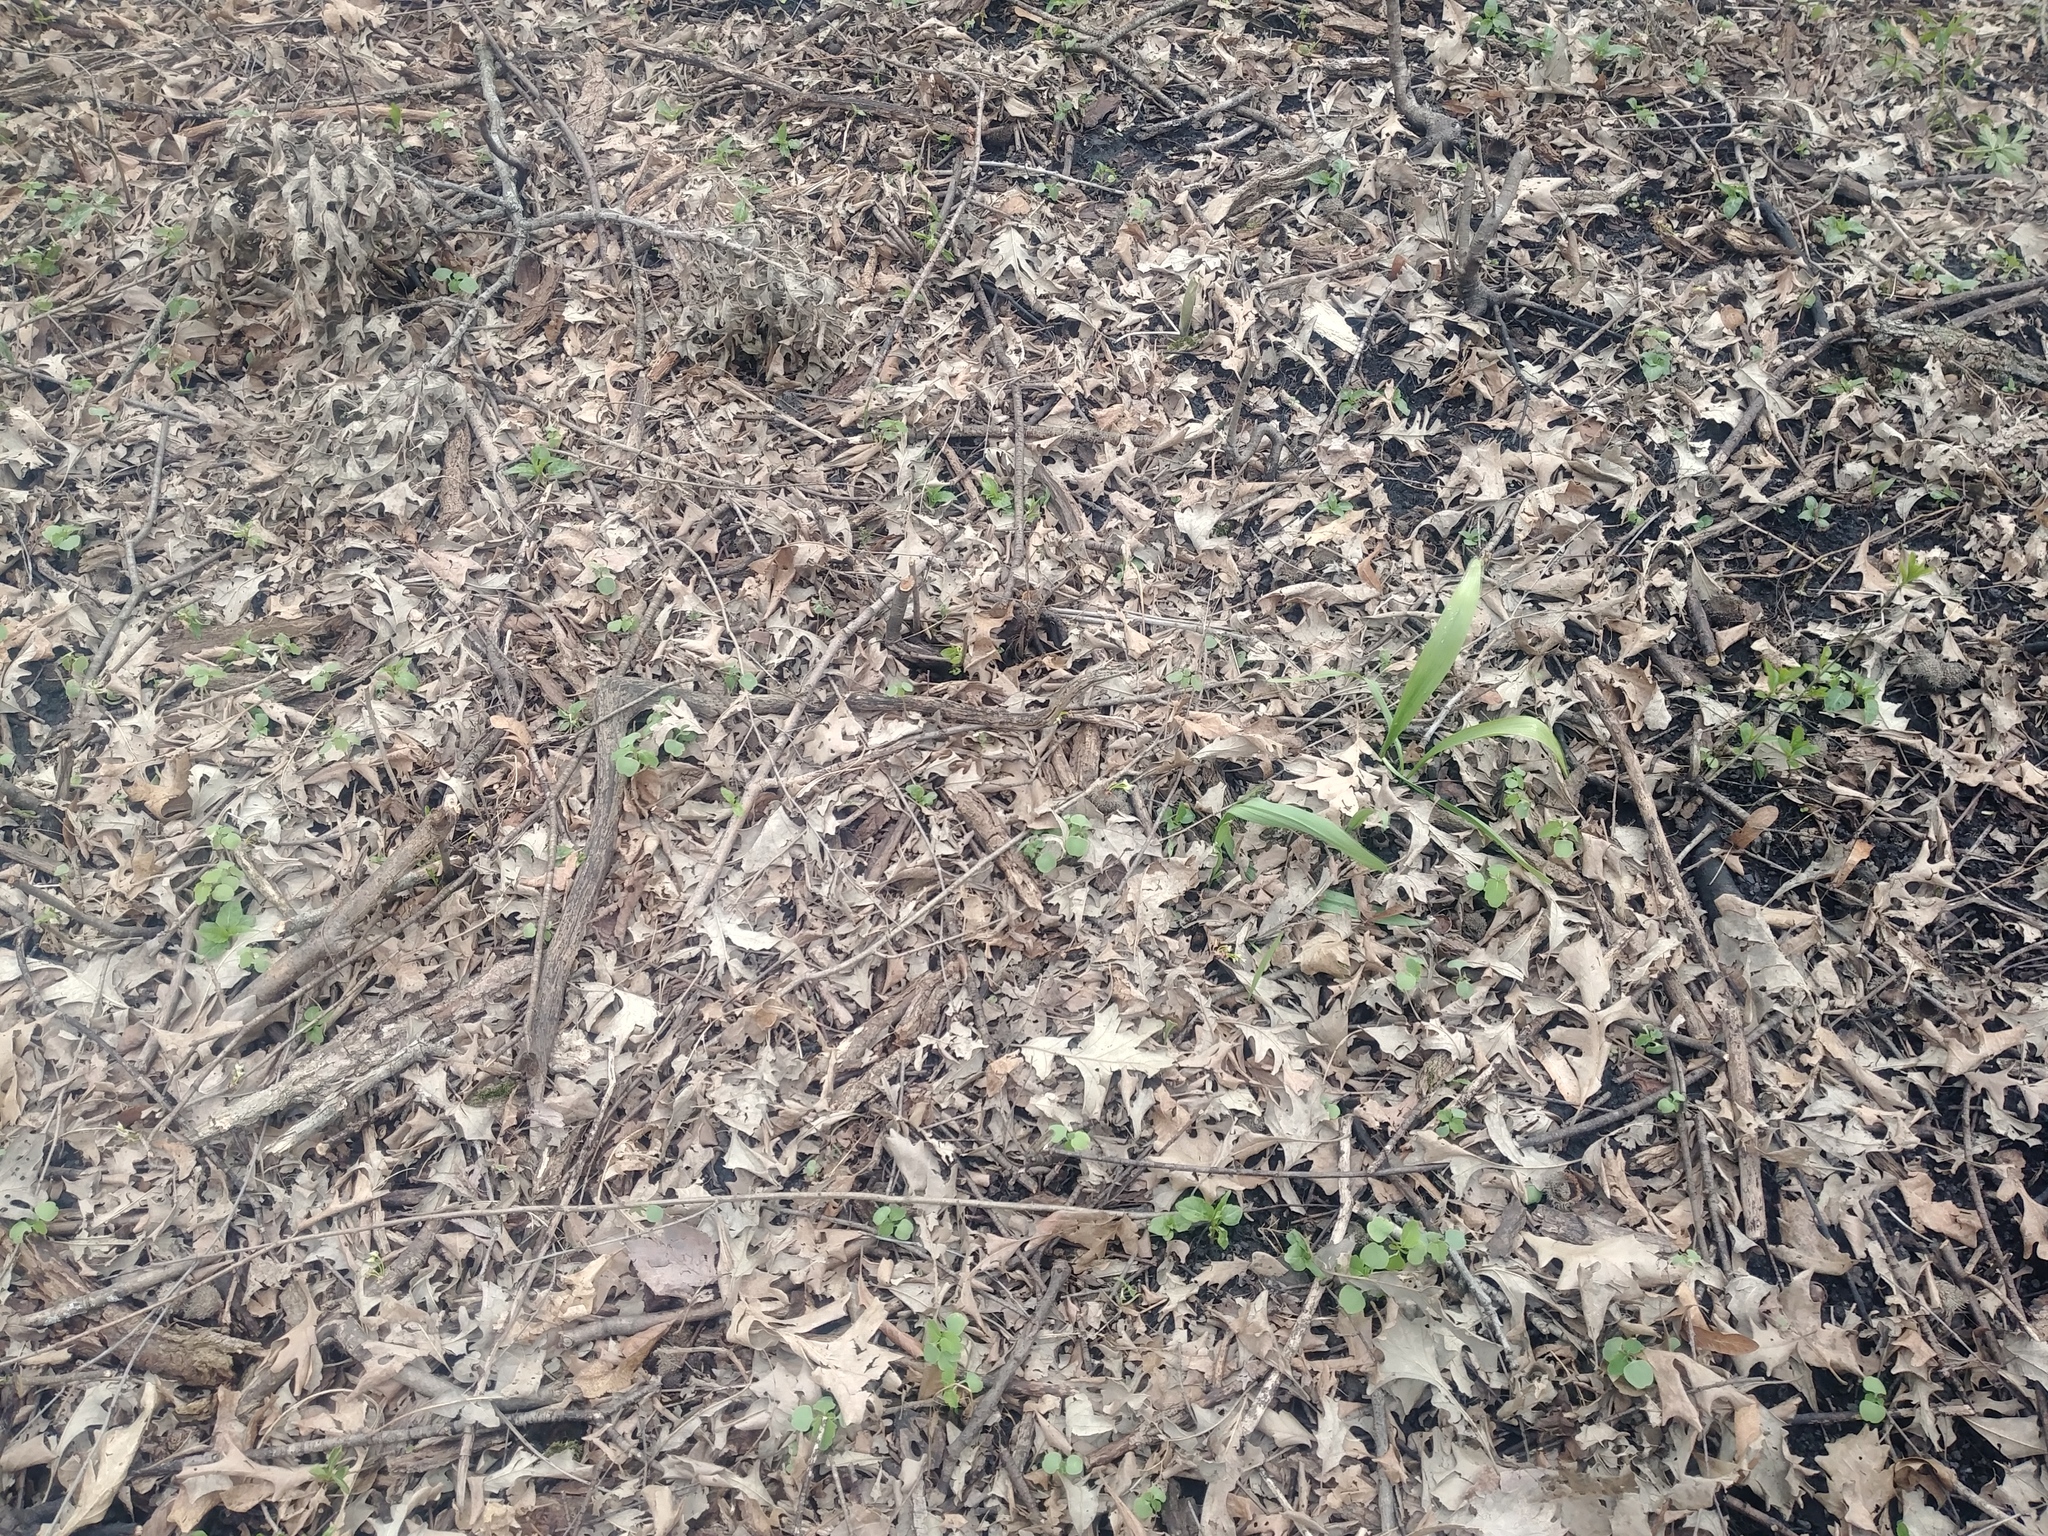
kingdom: Plantae
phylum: Tracheophyta
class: Liliopsida
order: Asparagales
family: Amaryllidaceae
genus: Allium
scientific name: Allium tricoccum
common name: Ramp
